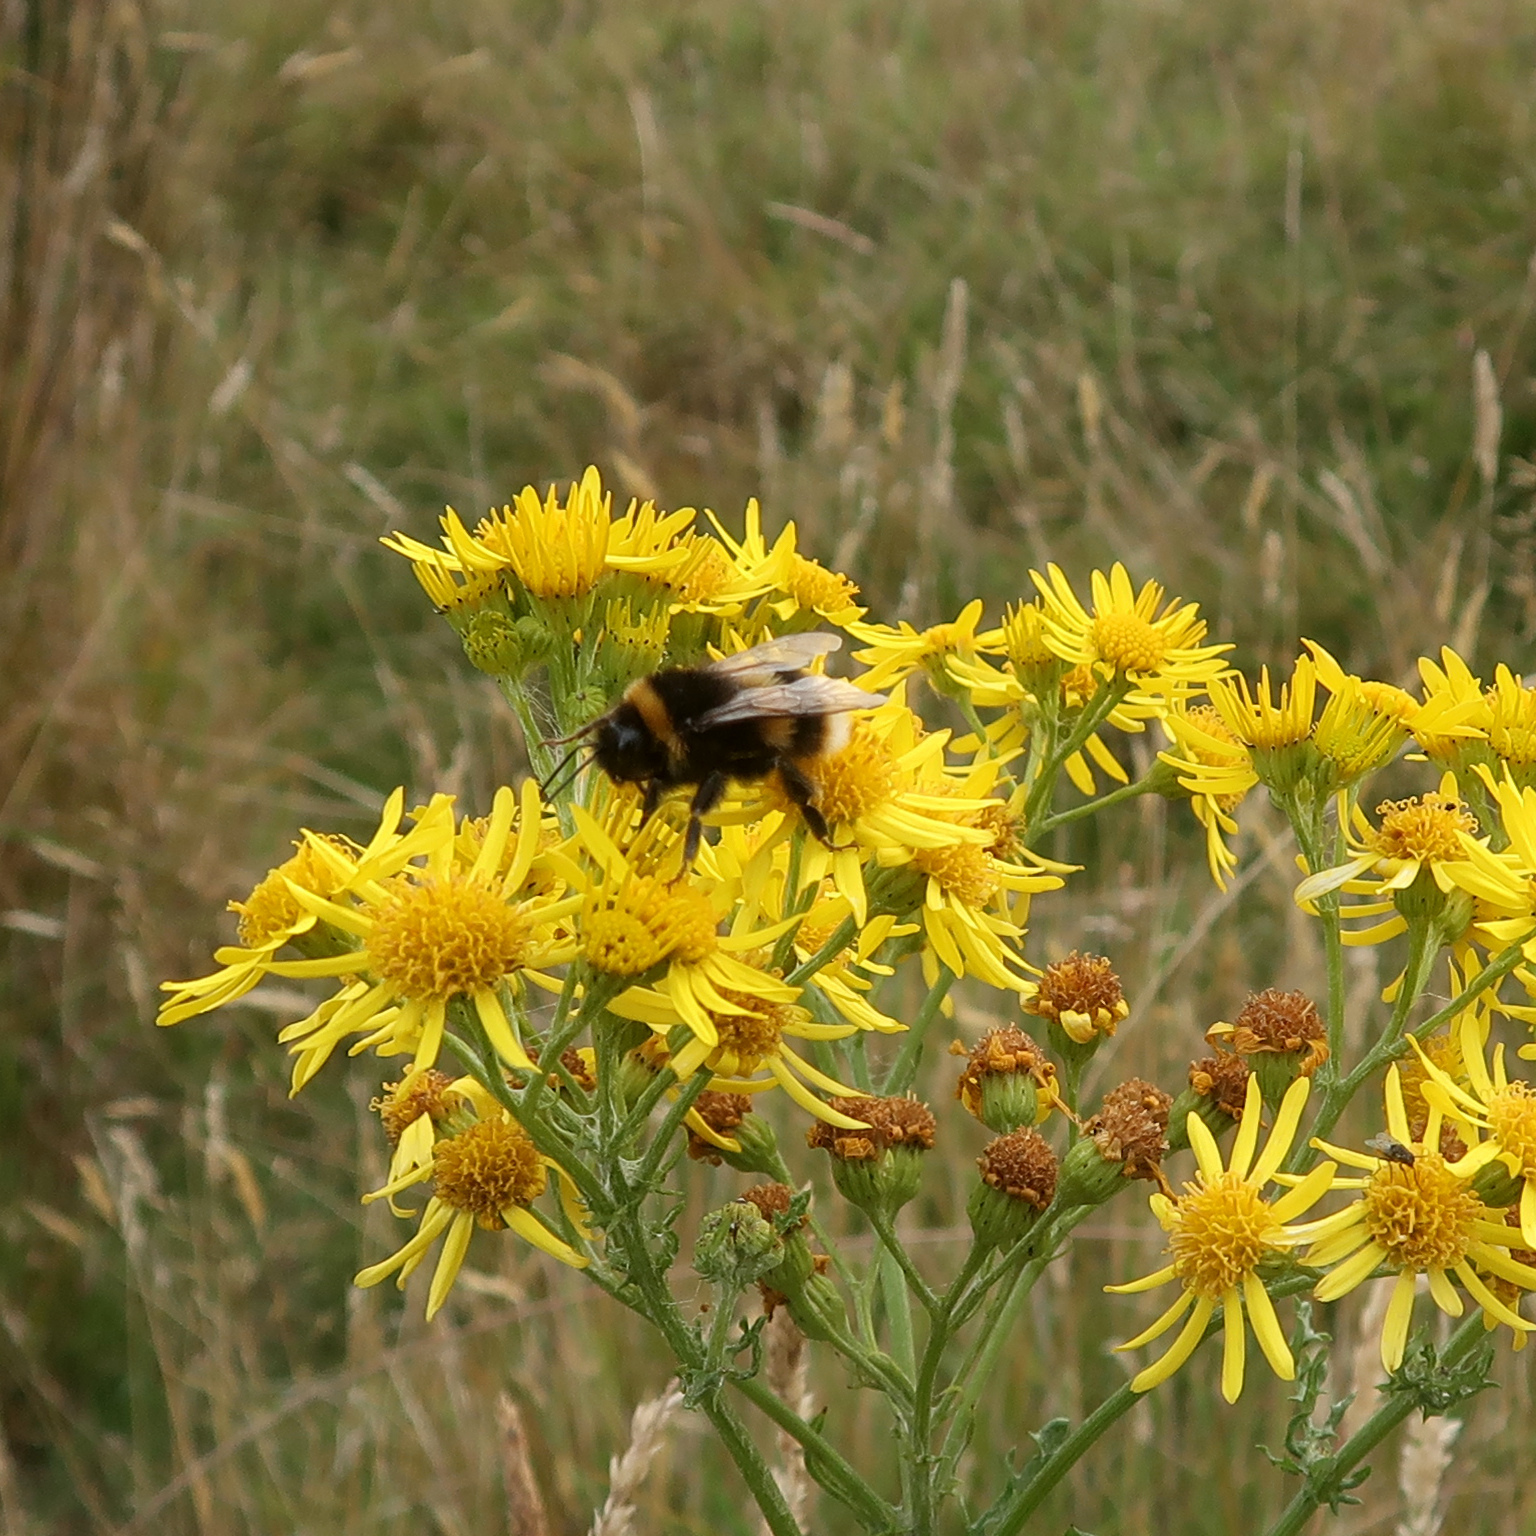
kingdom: Animalia
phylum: Arthropoda
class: Insecta
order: Hymenoptera
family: Apidae
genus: Bombus
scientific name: Bombus terrestris
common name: Buff-tailed bumblebee
